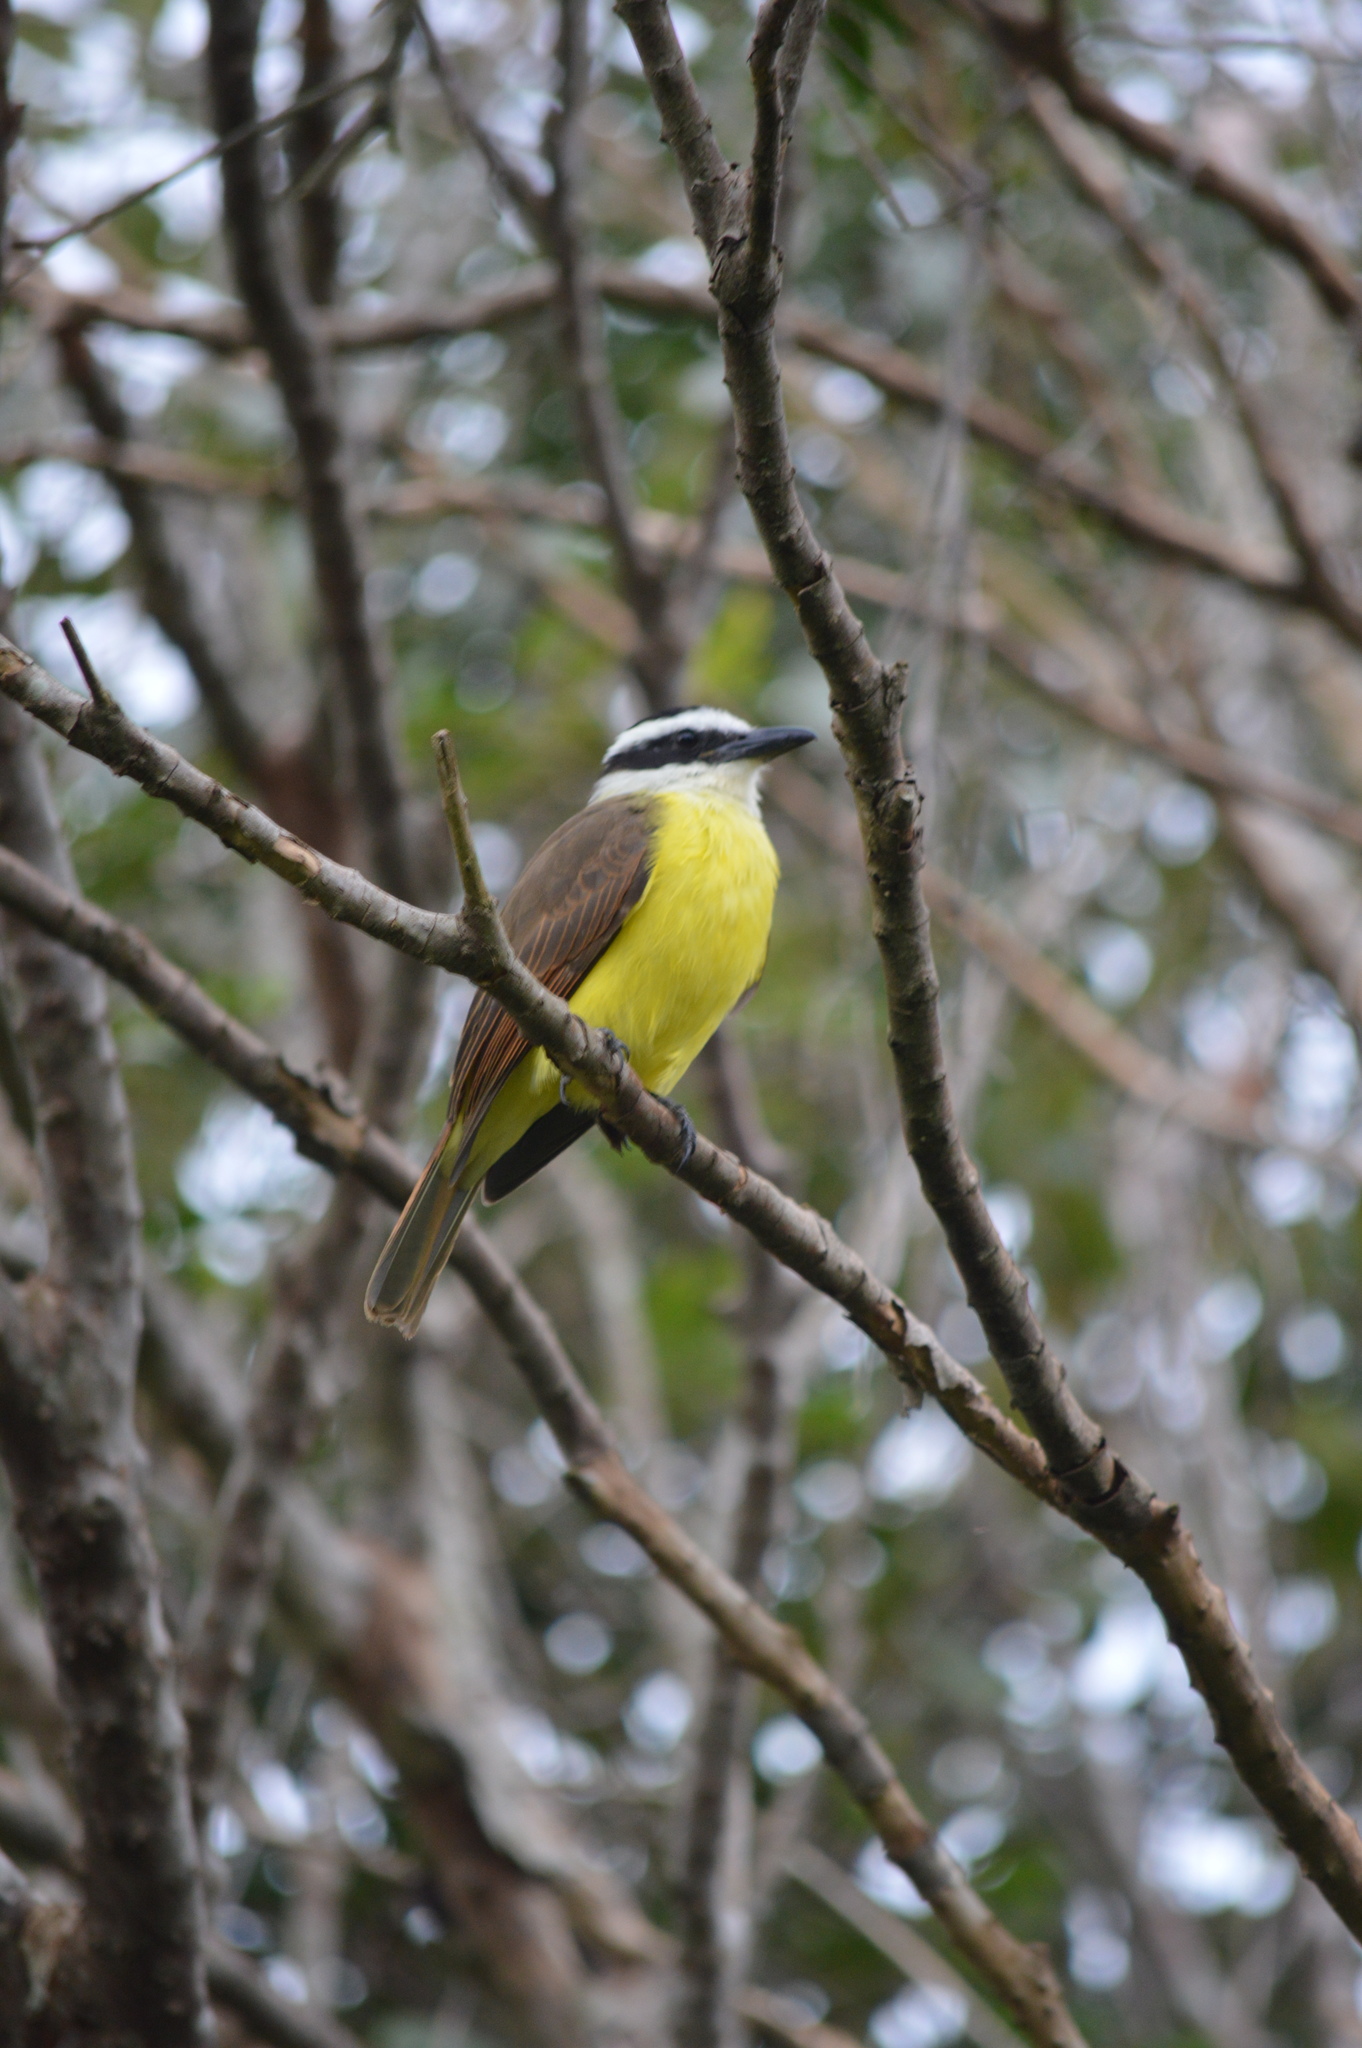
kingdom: Animalia
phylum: Chordata
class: Aves
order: Passeriformes
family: Tyrannidae
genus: Pitangus
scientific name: Pitangus sulphuratus
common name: Great kiskadee
